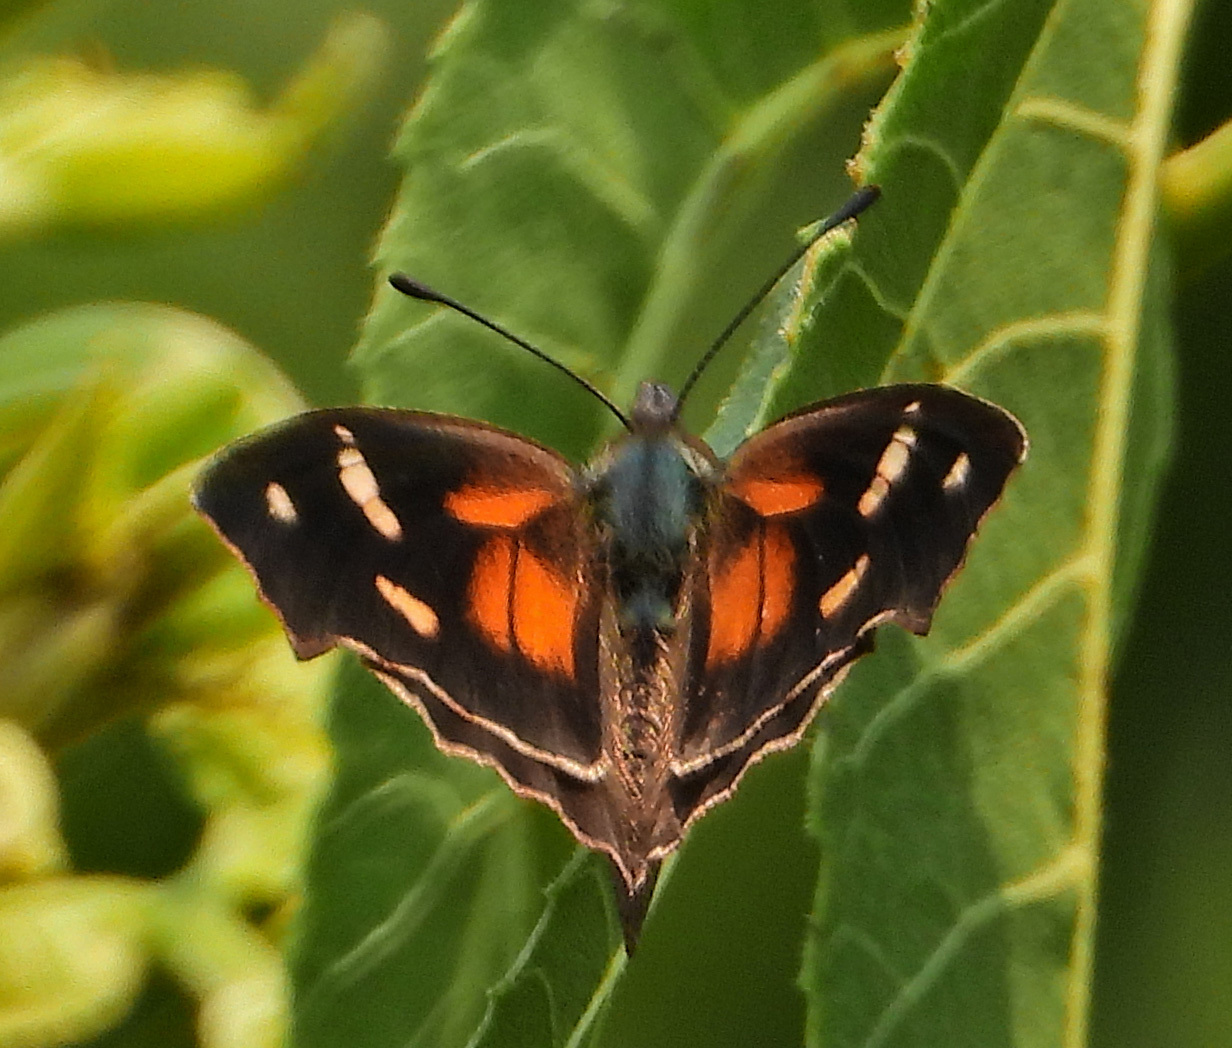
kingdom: Animalia
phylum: Arthropoda
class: Insecta
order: Lepidoptera
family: Nymphalidae
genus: Libytheana
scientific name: Libytheana carinenta
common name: American snout
